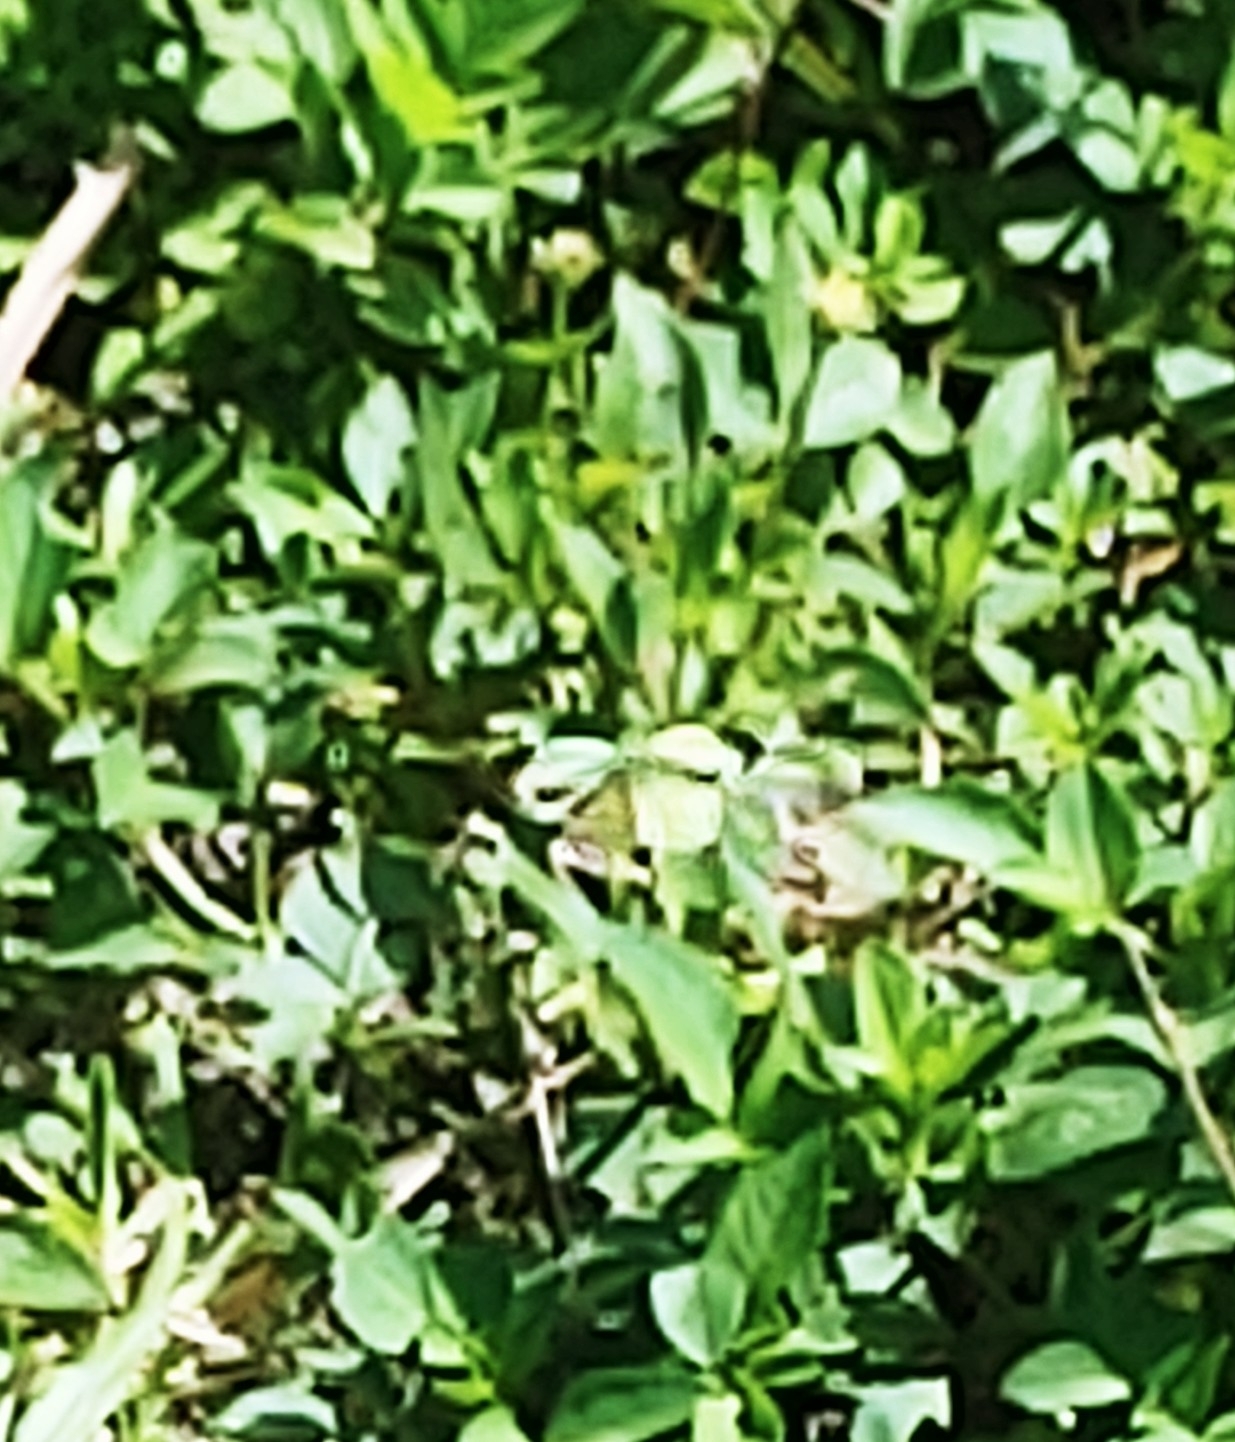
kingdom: Animalia
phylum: Arthropoda
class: Insecta
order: Lepidoptera
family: Pieridae
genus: Eurema
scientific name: Eurema daira
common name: Barred sulphur
